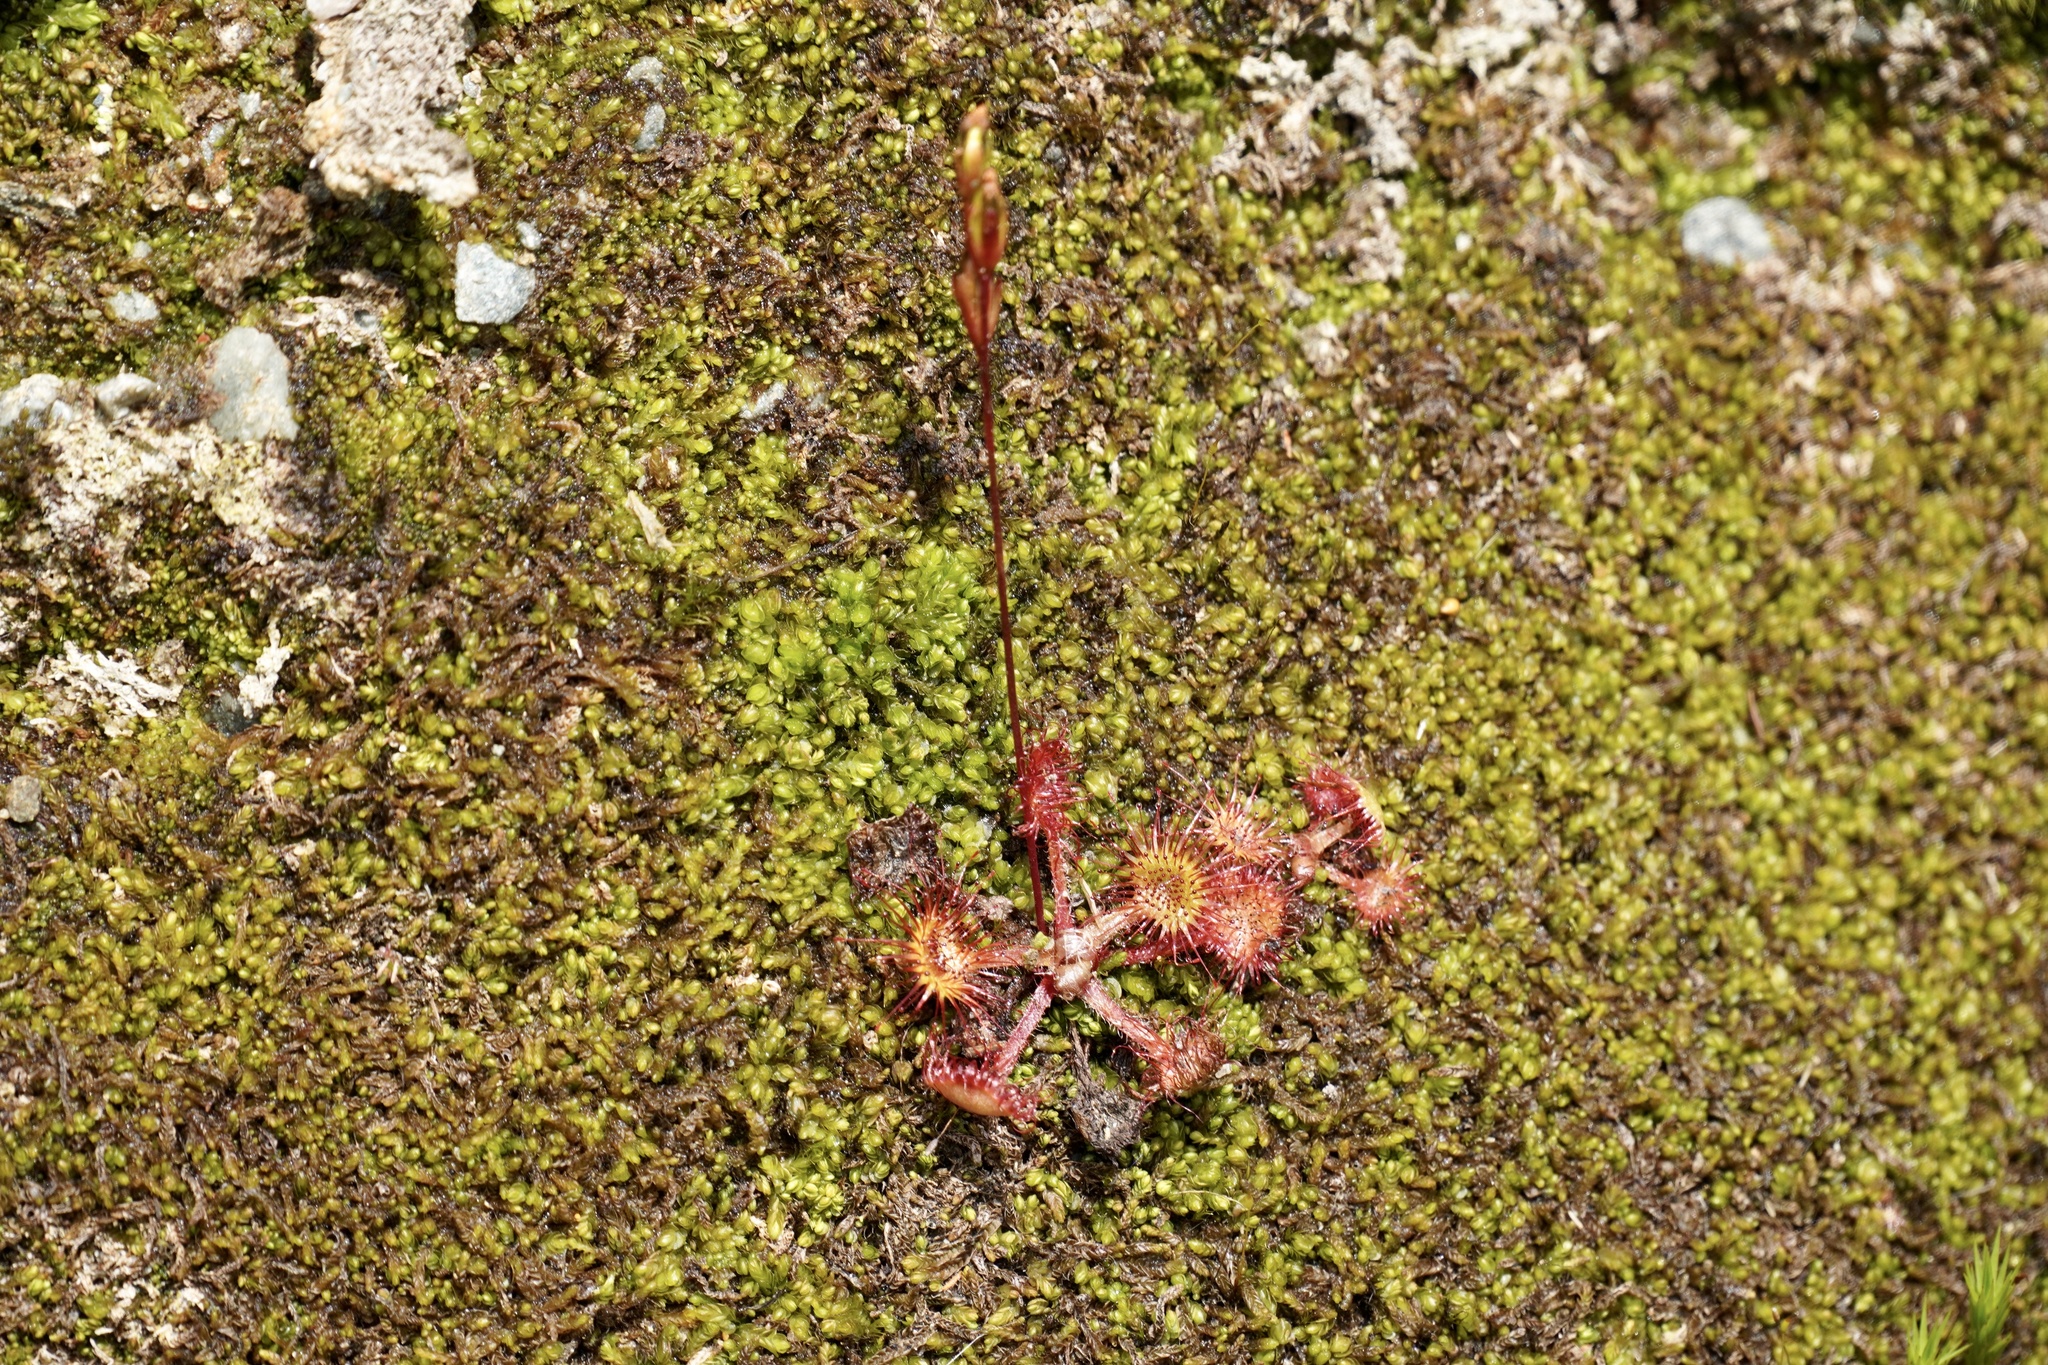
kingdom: Plantae
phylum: Tracheophyta
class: Magnoliopsida
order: Caryophyllales
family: Droseraceae
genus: Drosera
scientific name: Drosera rotundifolia
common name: Round-leaved sundew
